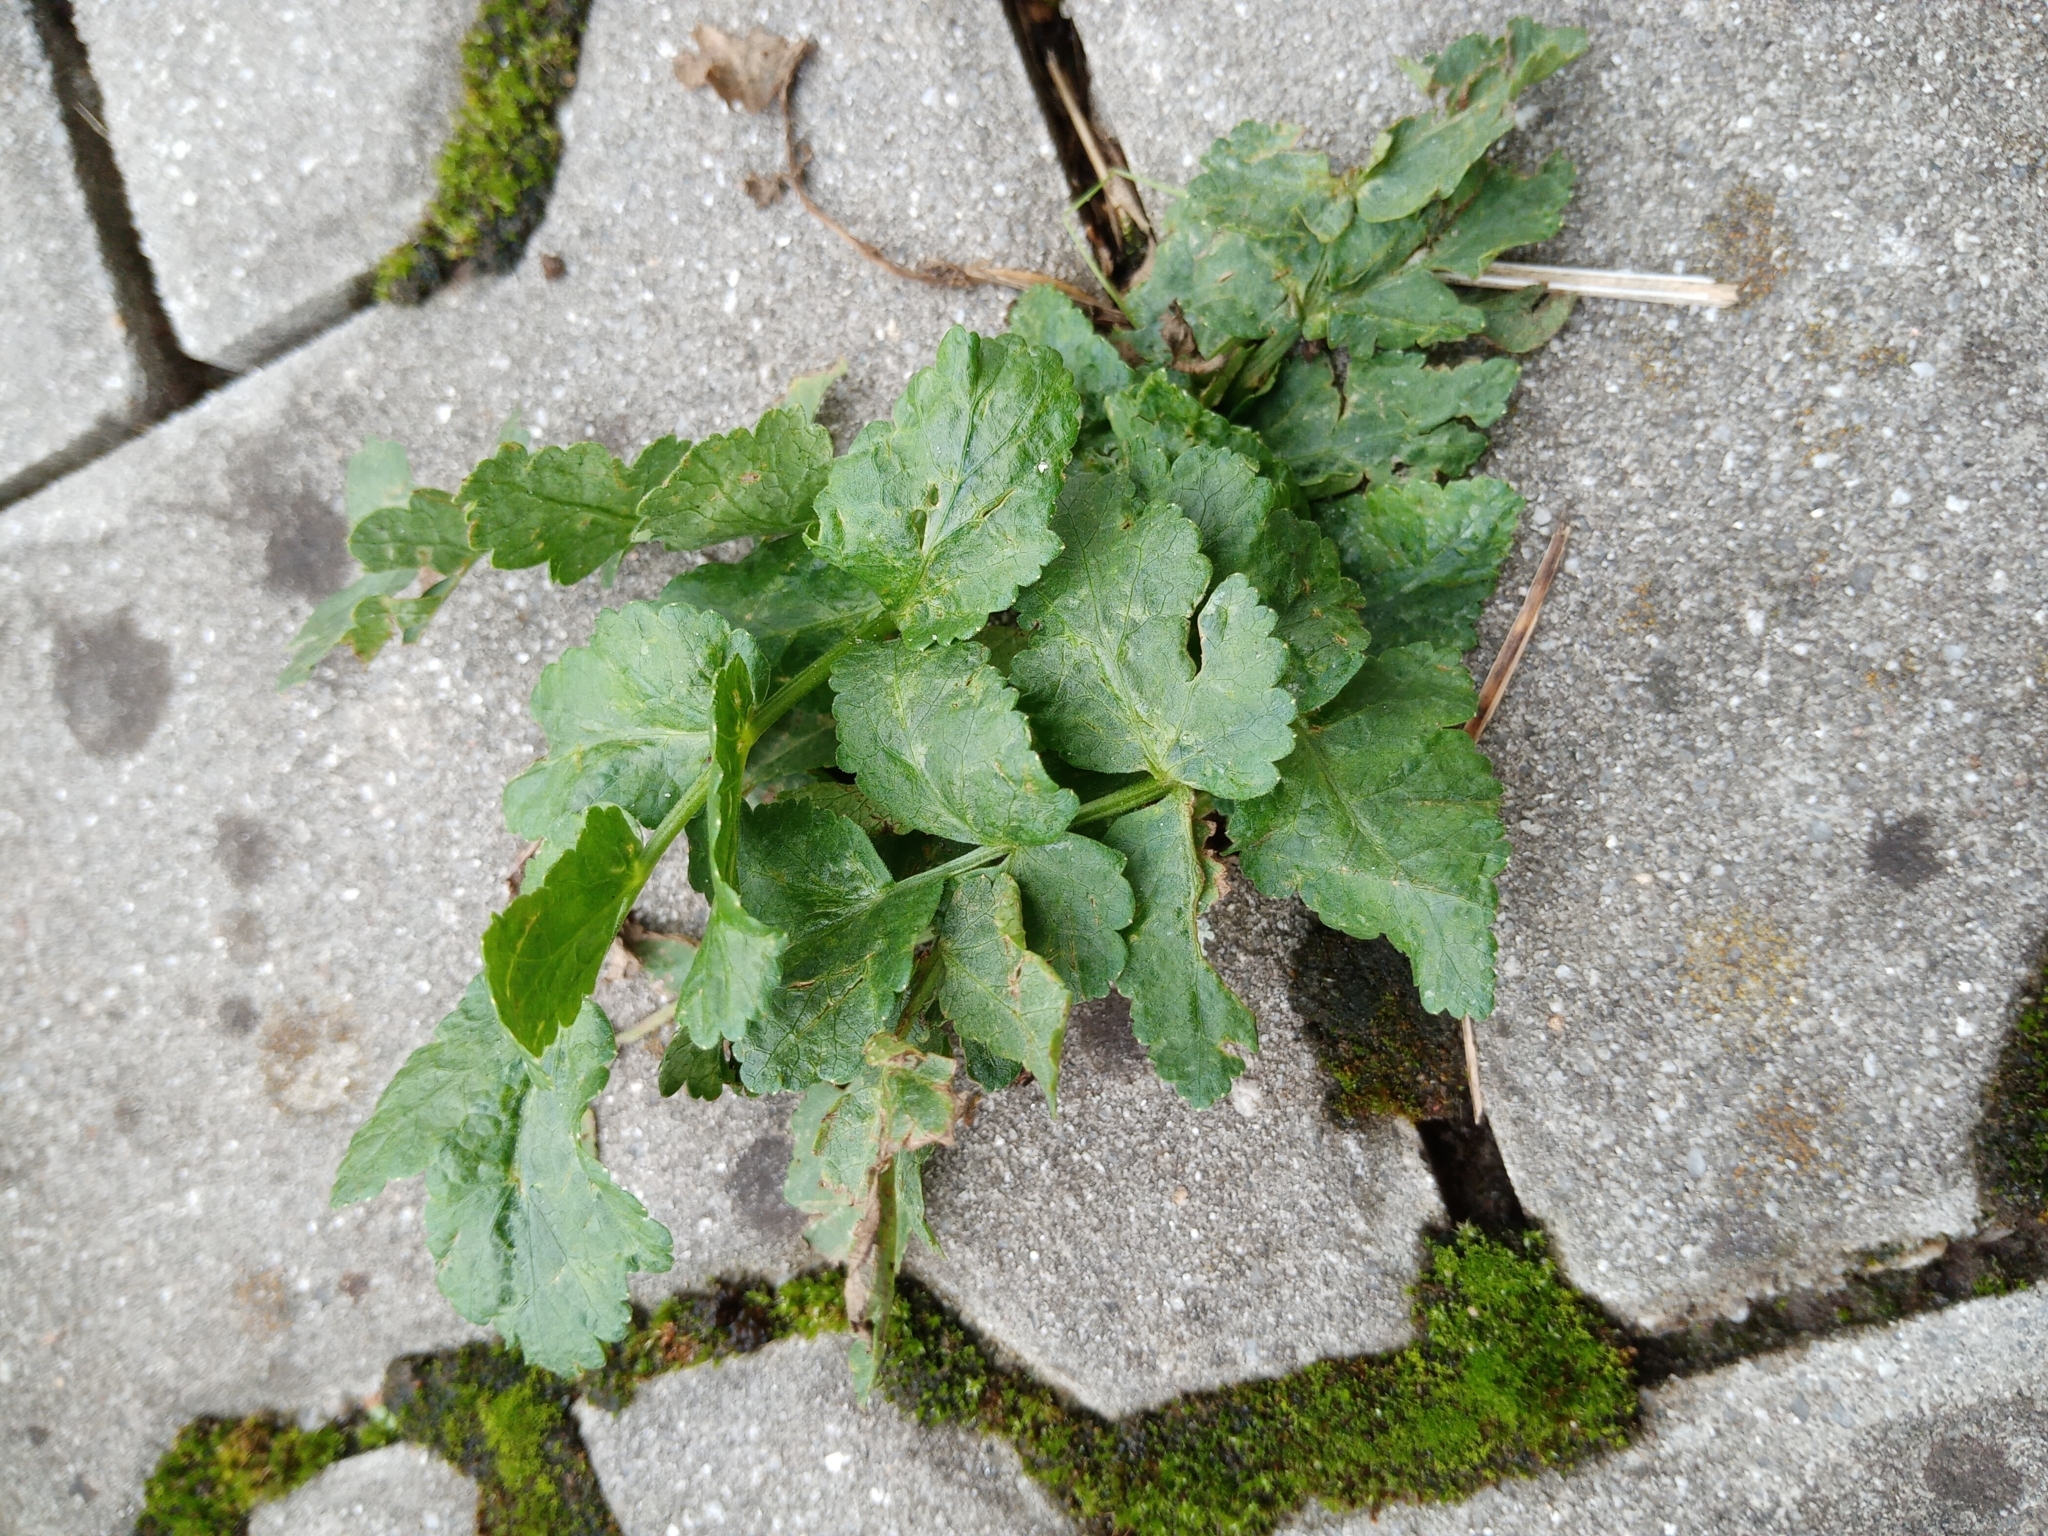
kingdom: Plantae
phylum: Tracheophyta
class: Magnoliopsida
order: Apiales
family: Apiaceae
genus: Pastinaca
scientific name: Pastinaca sativa
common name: Wild parsnip
